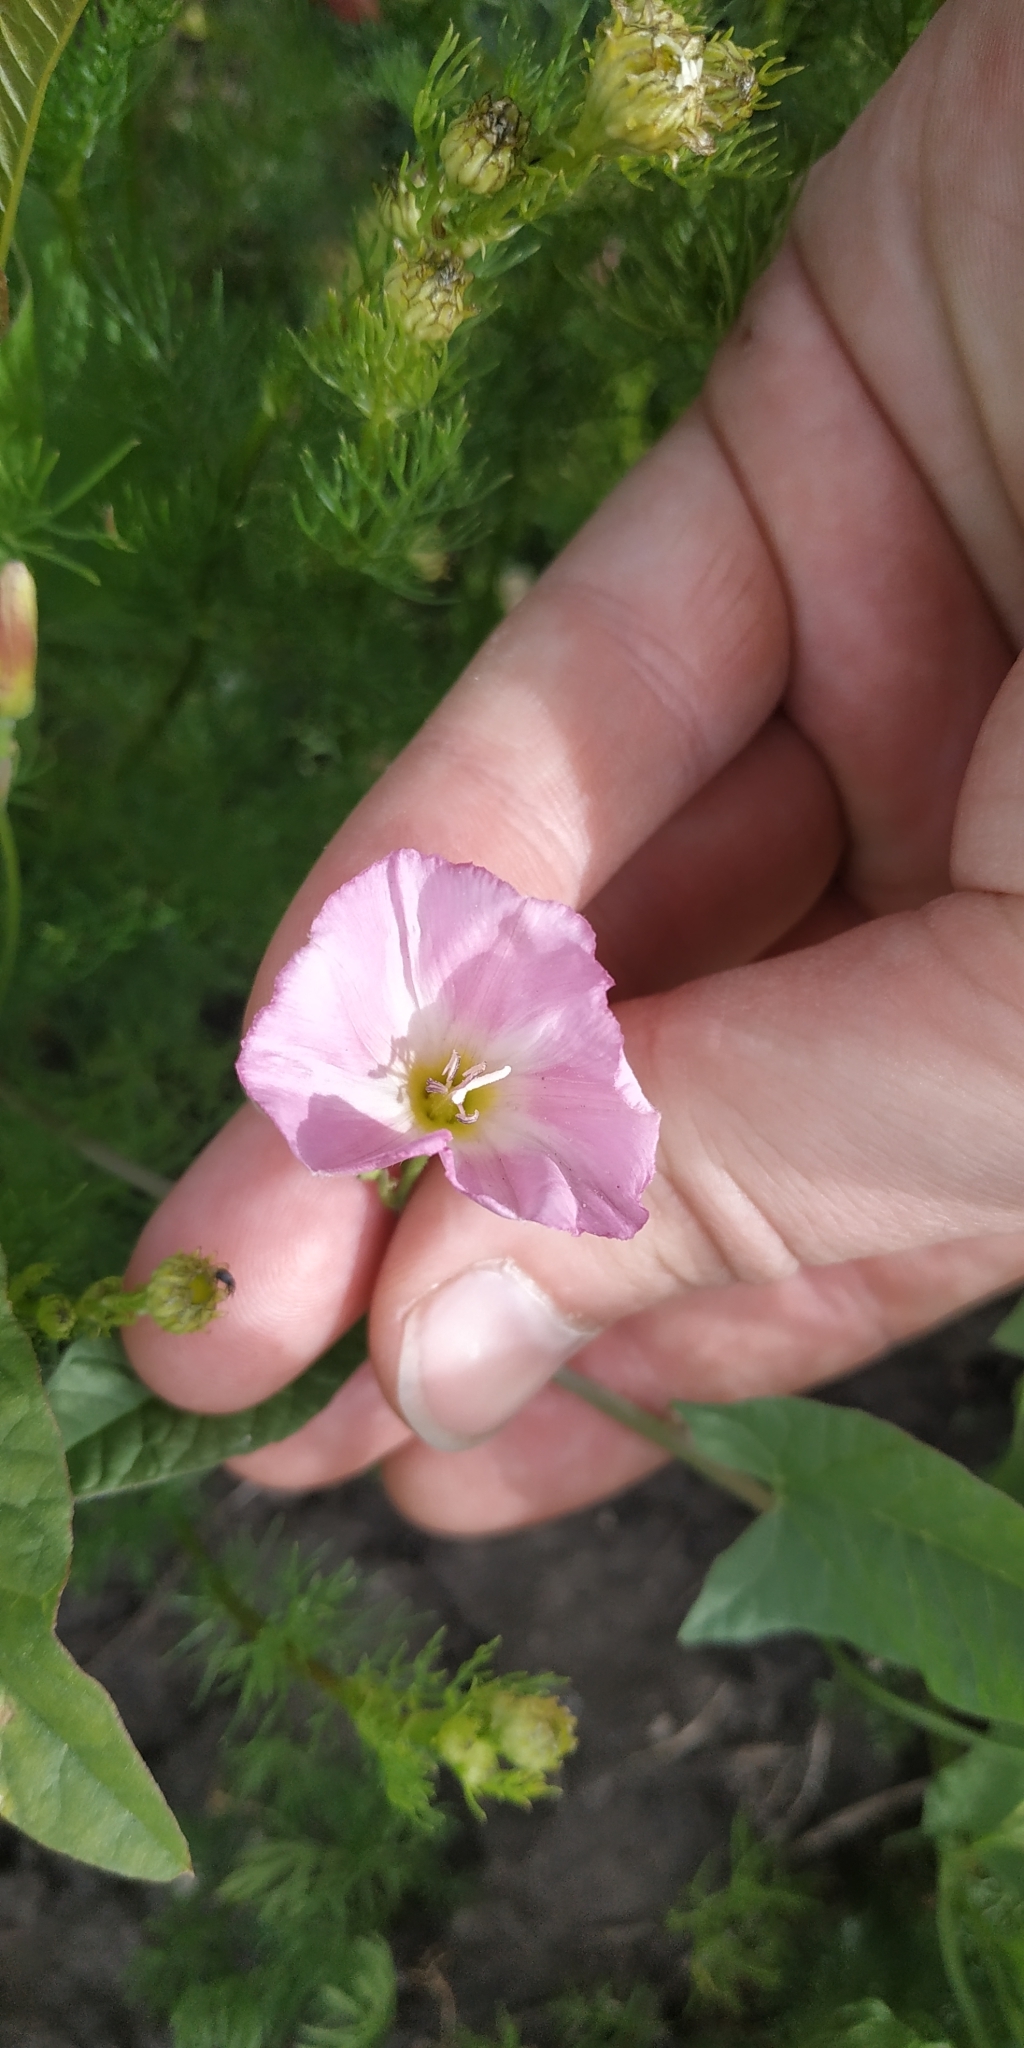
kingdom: Plantae
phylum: Tracheophyta
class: Magnoliopsida
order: Solanales
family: Convolvulaceae
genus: Convolvulus
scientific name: Convolvulus arvensis
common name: Field bindweed
